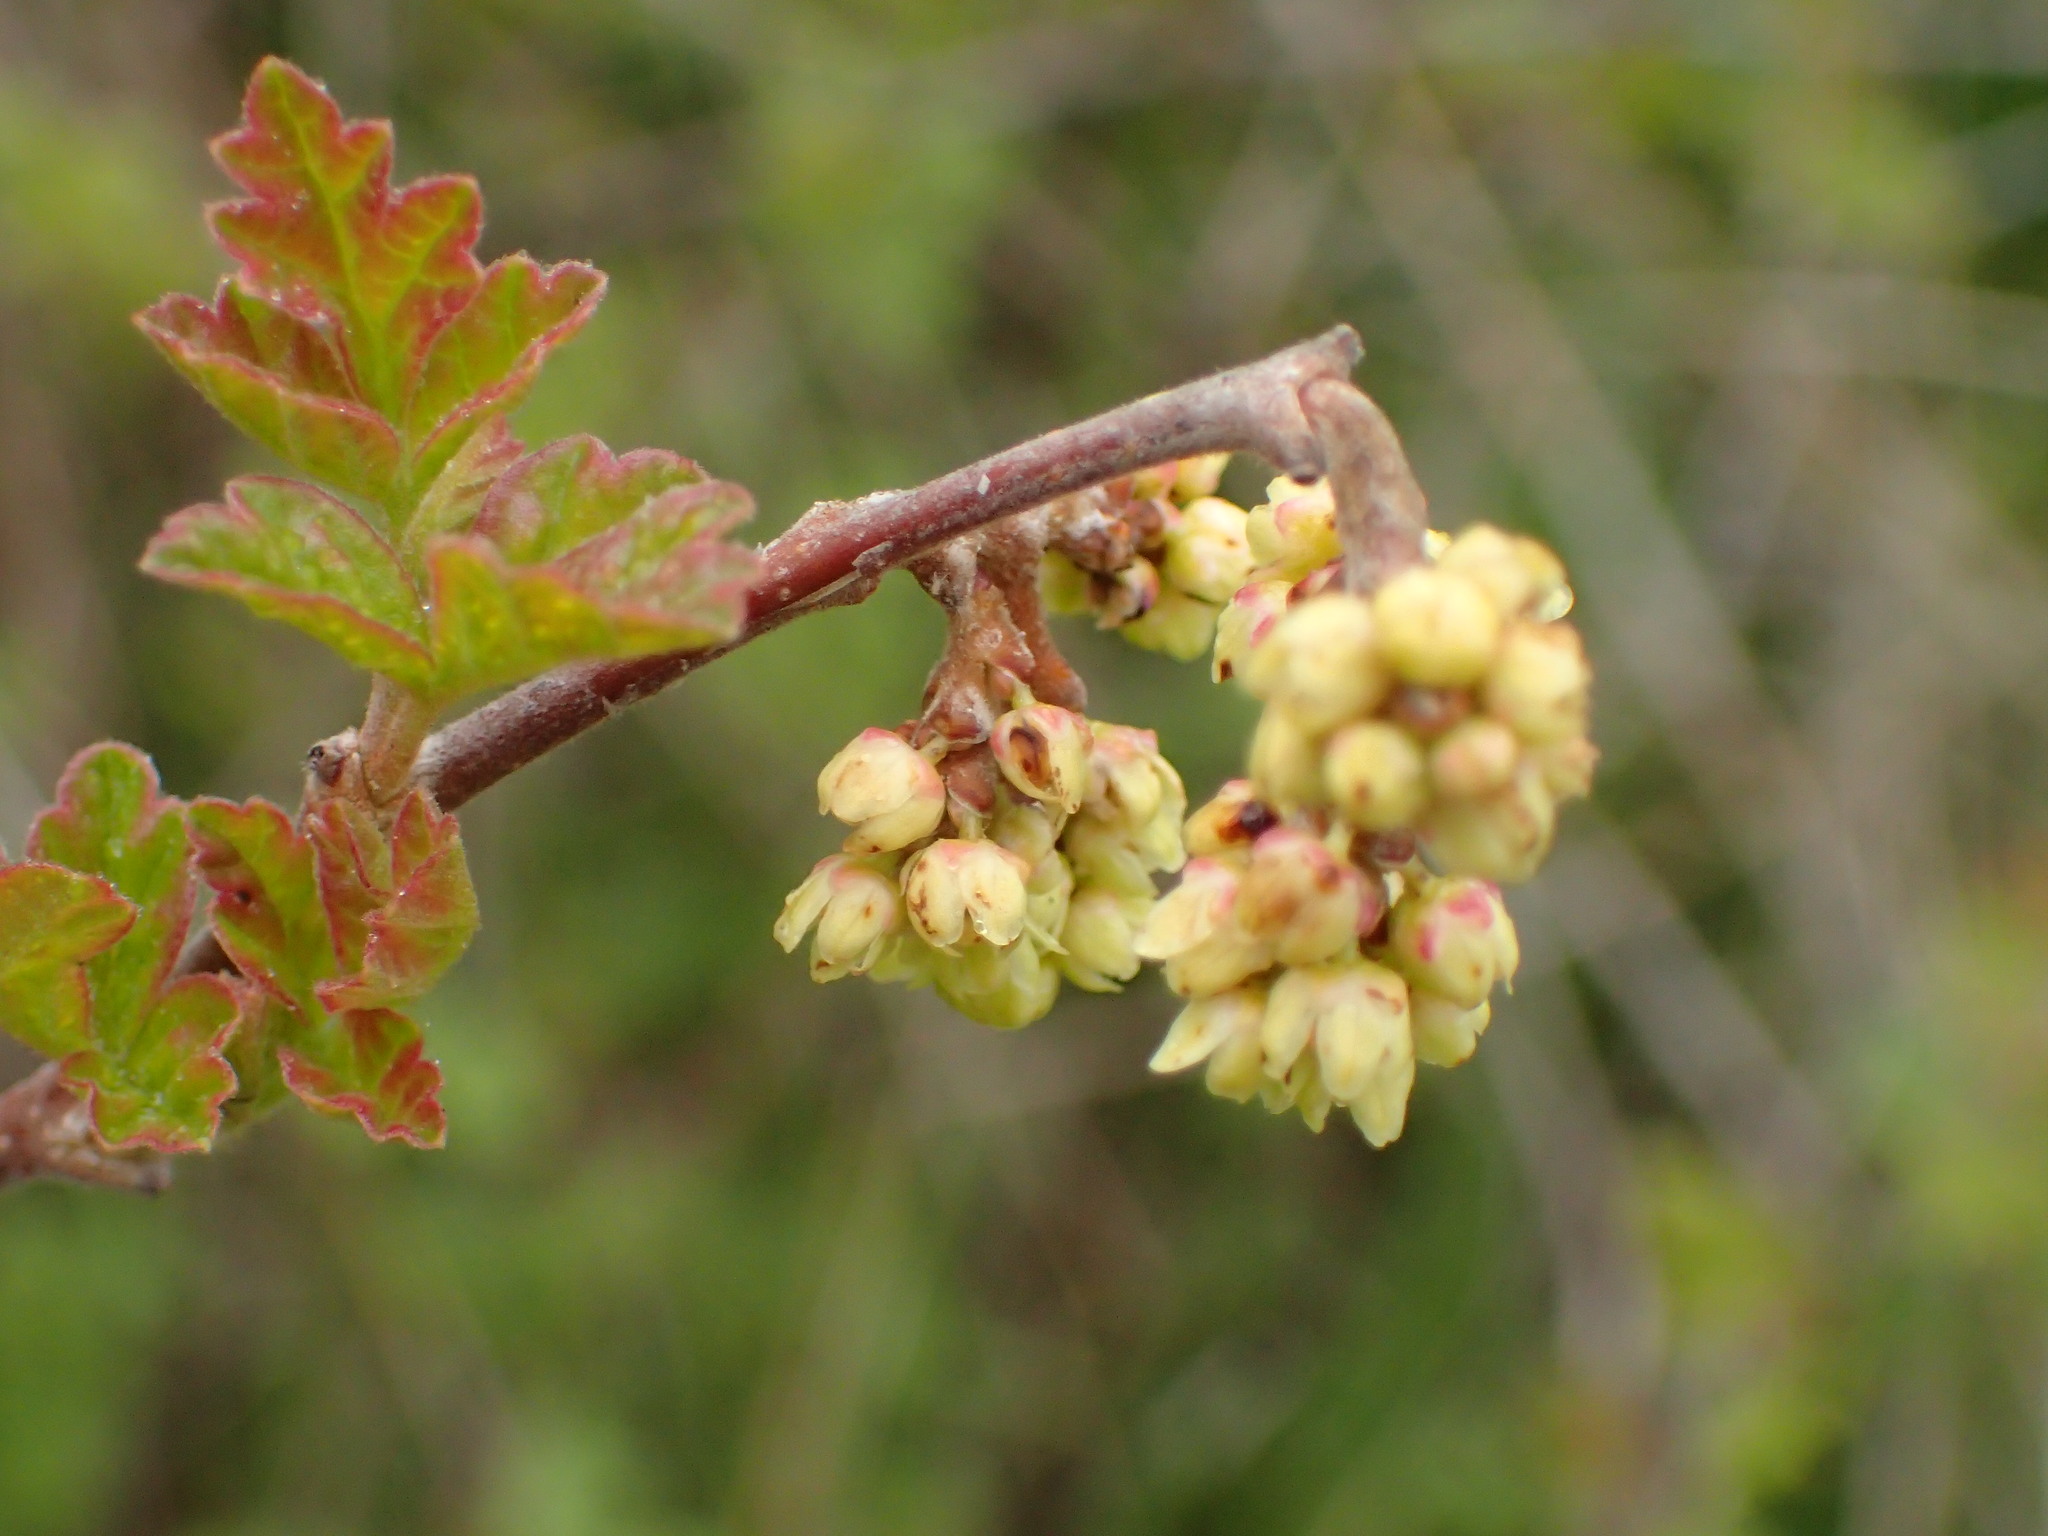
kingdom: Plantae
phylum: Tracheophyta
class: Magnoliopsida
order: Sapindales
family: Anacardiaceae
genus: Rhus
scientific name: Rhus aromatica
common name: Aromatic sumac
